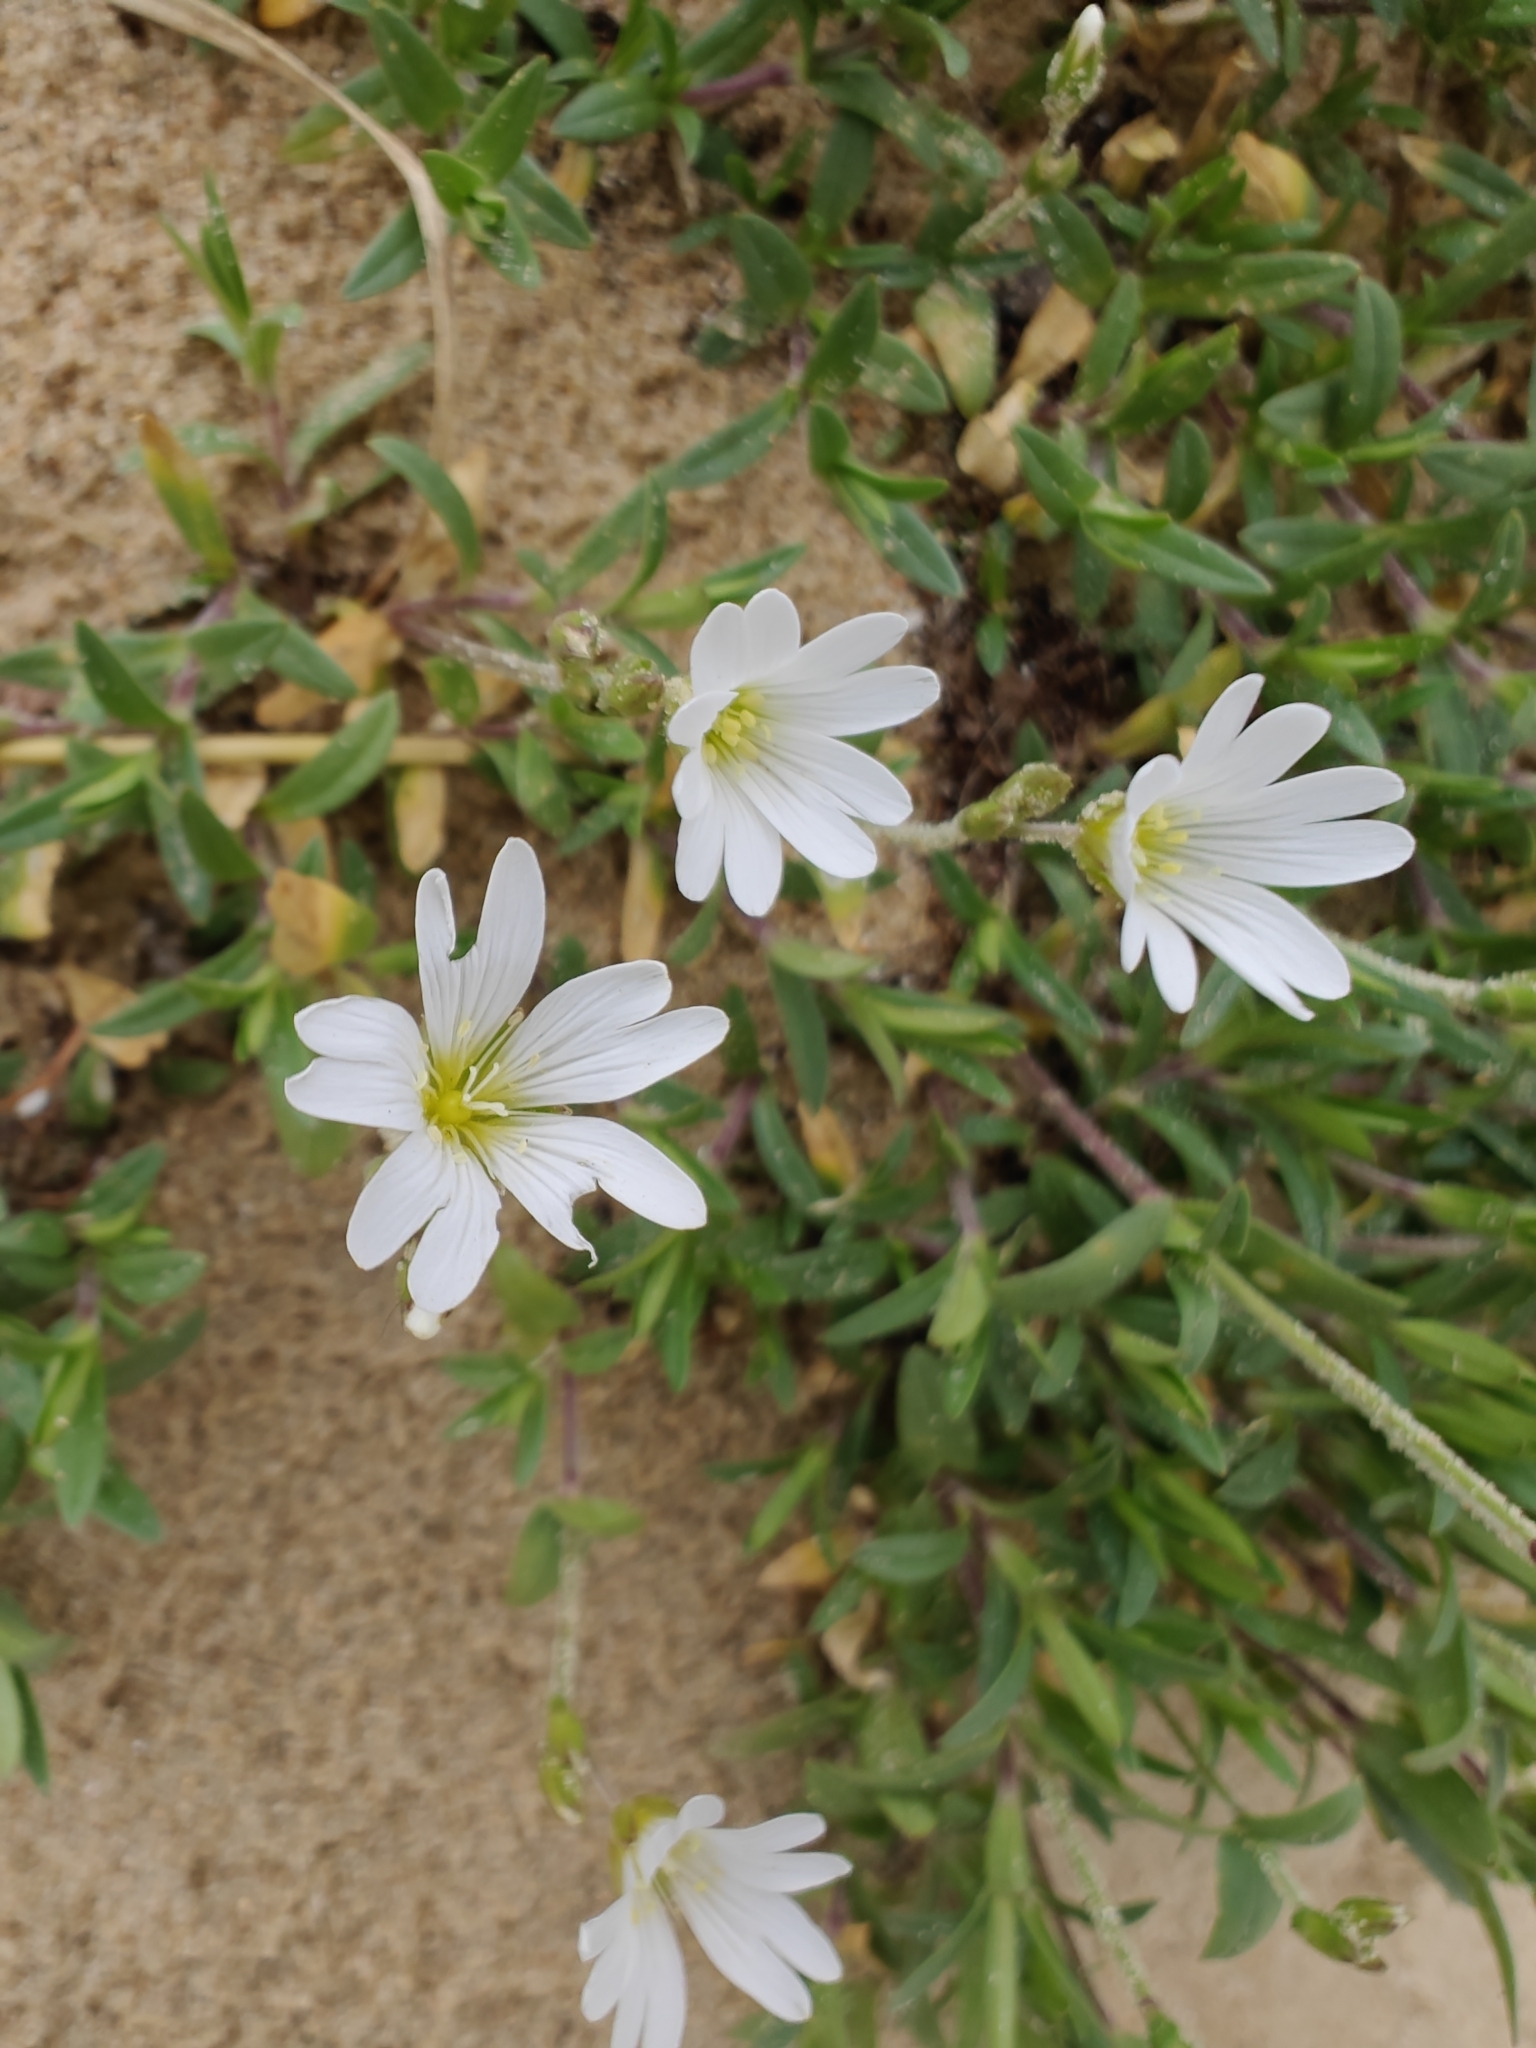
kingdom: Plantae
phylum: Tracheophyta
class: Magnoliopsida
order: Caryophyllales
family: Caryophyllaceae
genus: Cerastium
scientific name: Cerastium arvense
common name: Field mouse-ear
